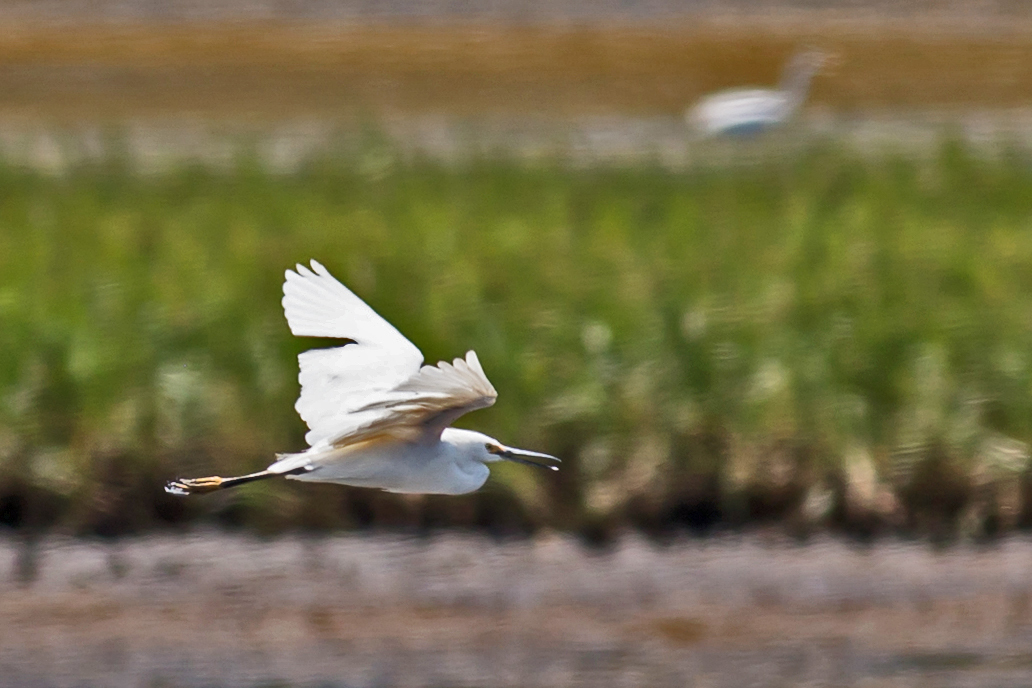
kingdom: Animalia
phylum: Chordata
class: Aves
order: Pelecaniformes
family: Ardeidae
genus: Egretta
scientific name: Egretta thula
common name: Snowy egret
